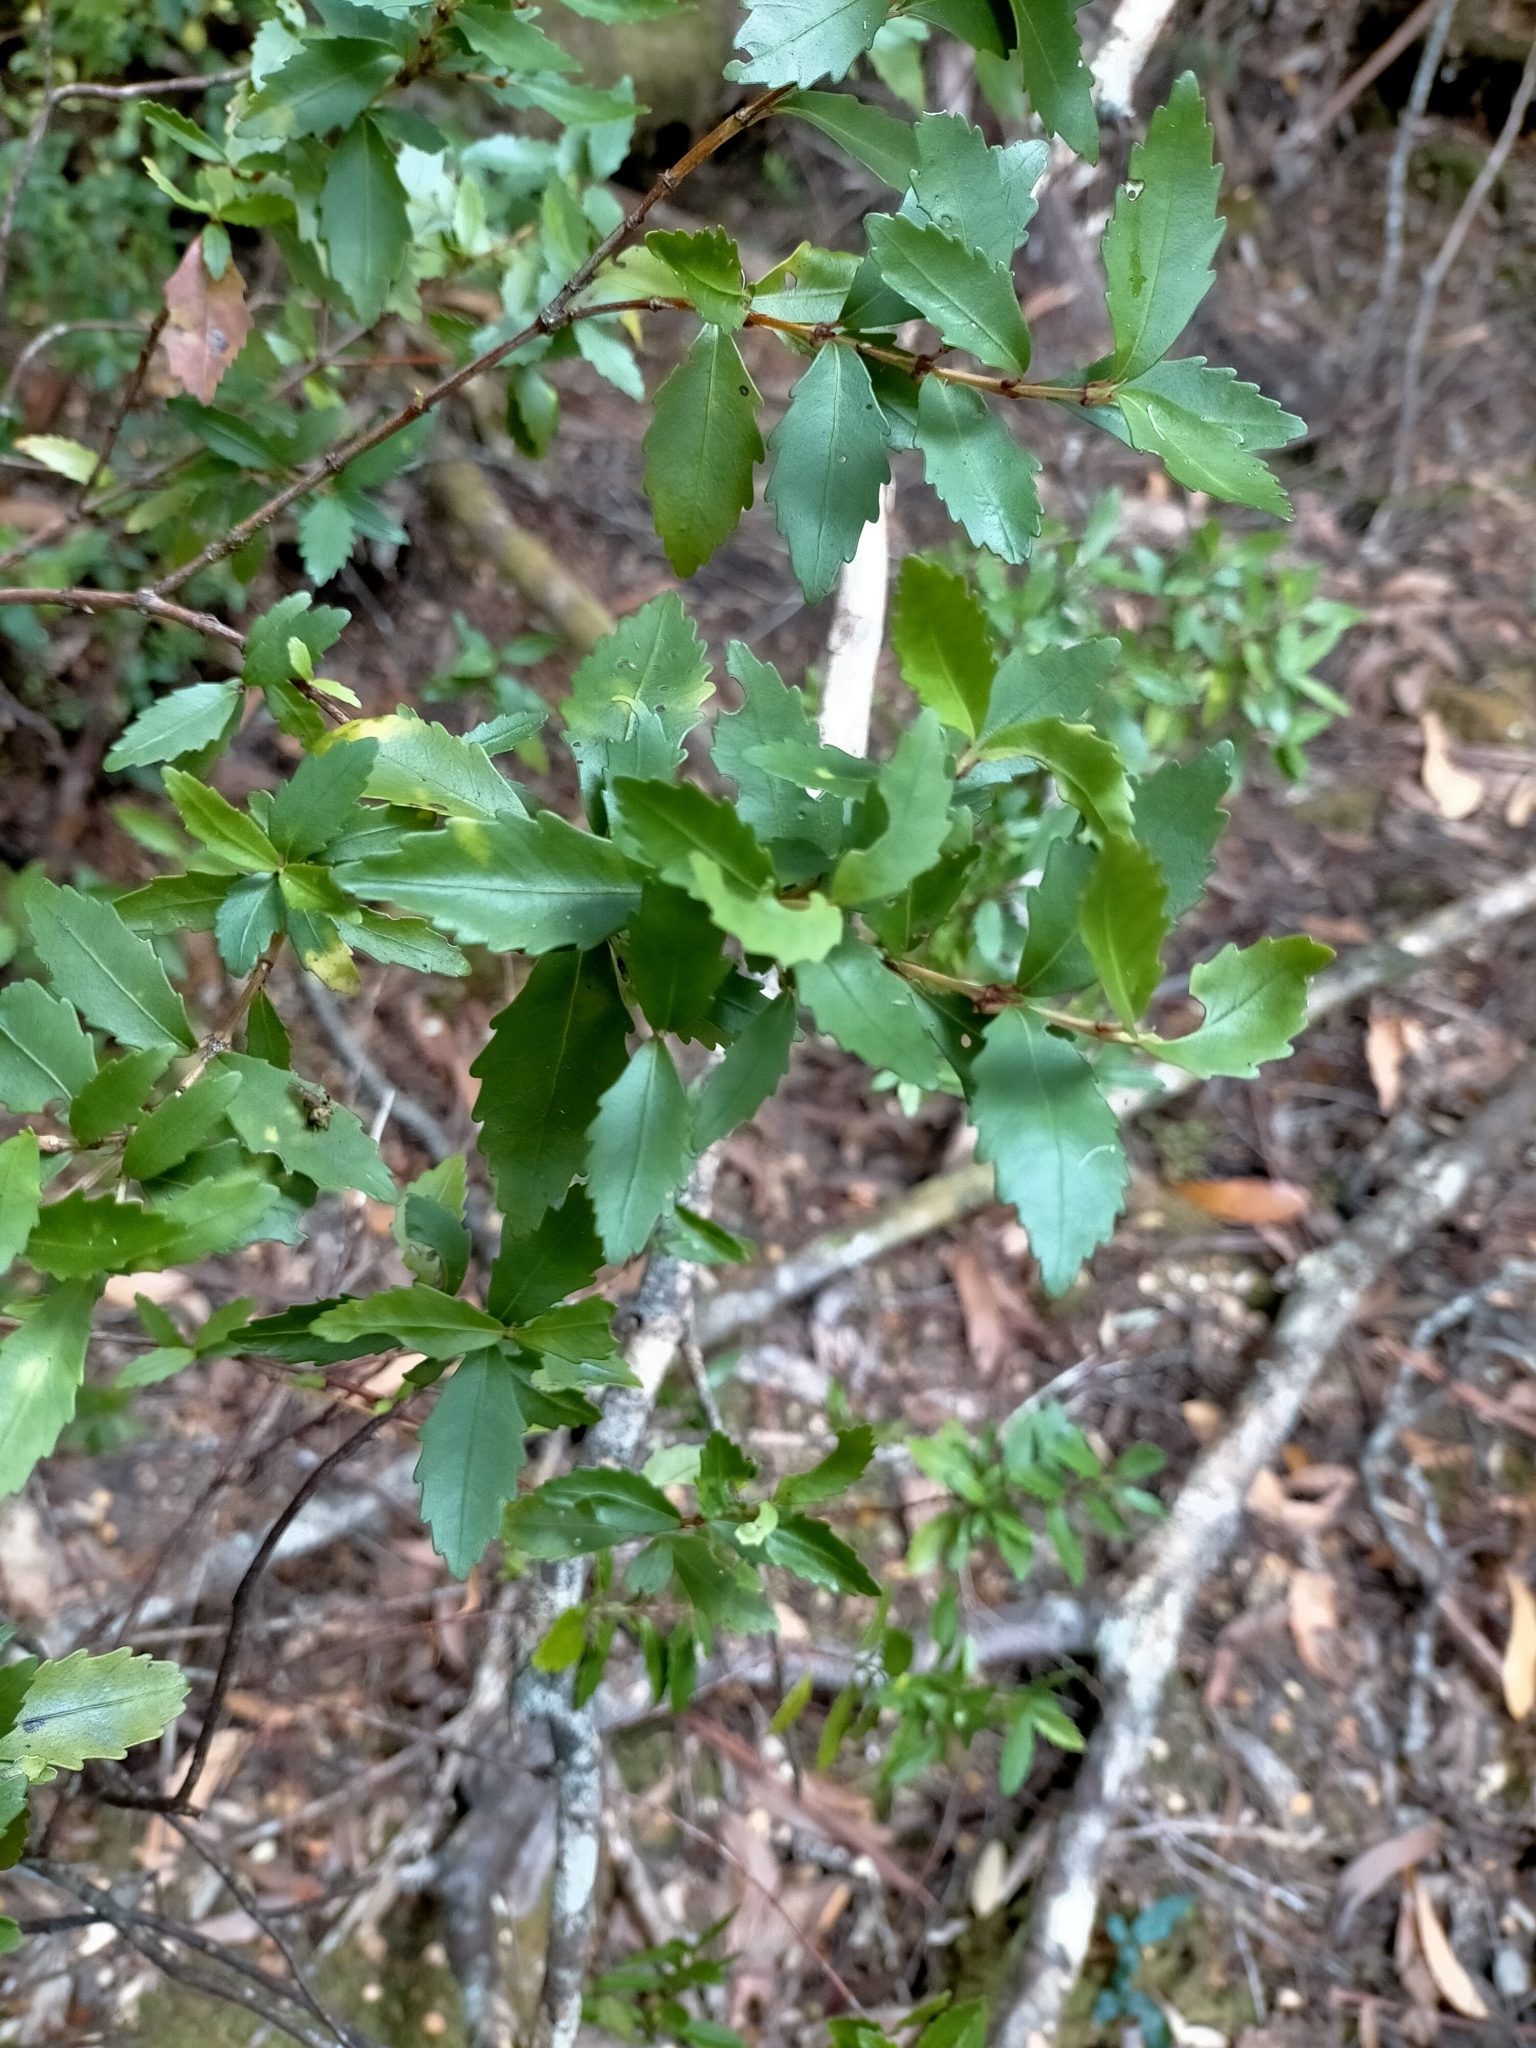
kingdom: Plantae
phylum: Tracheophyta
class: Magnoliopsida
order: Oxalidales
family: Cunoniaceae
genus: Anodopetalum
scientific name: Anodopetalum biglandulosum
